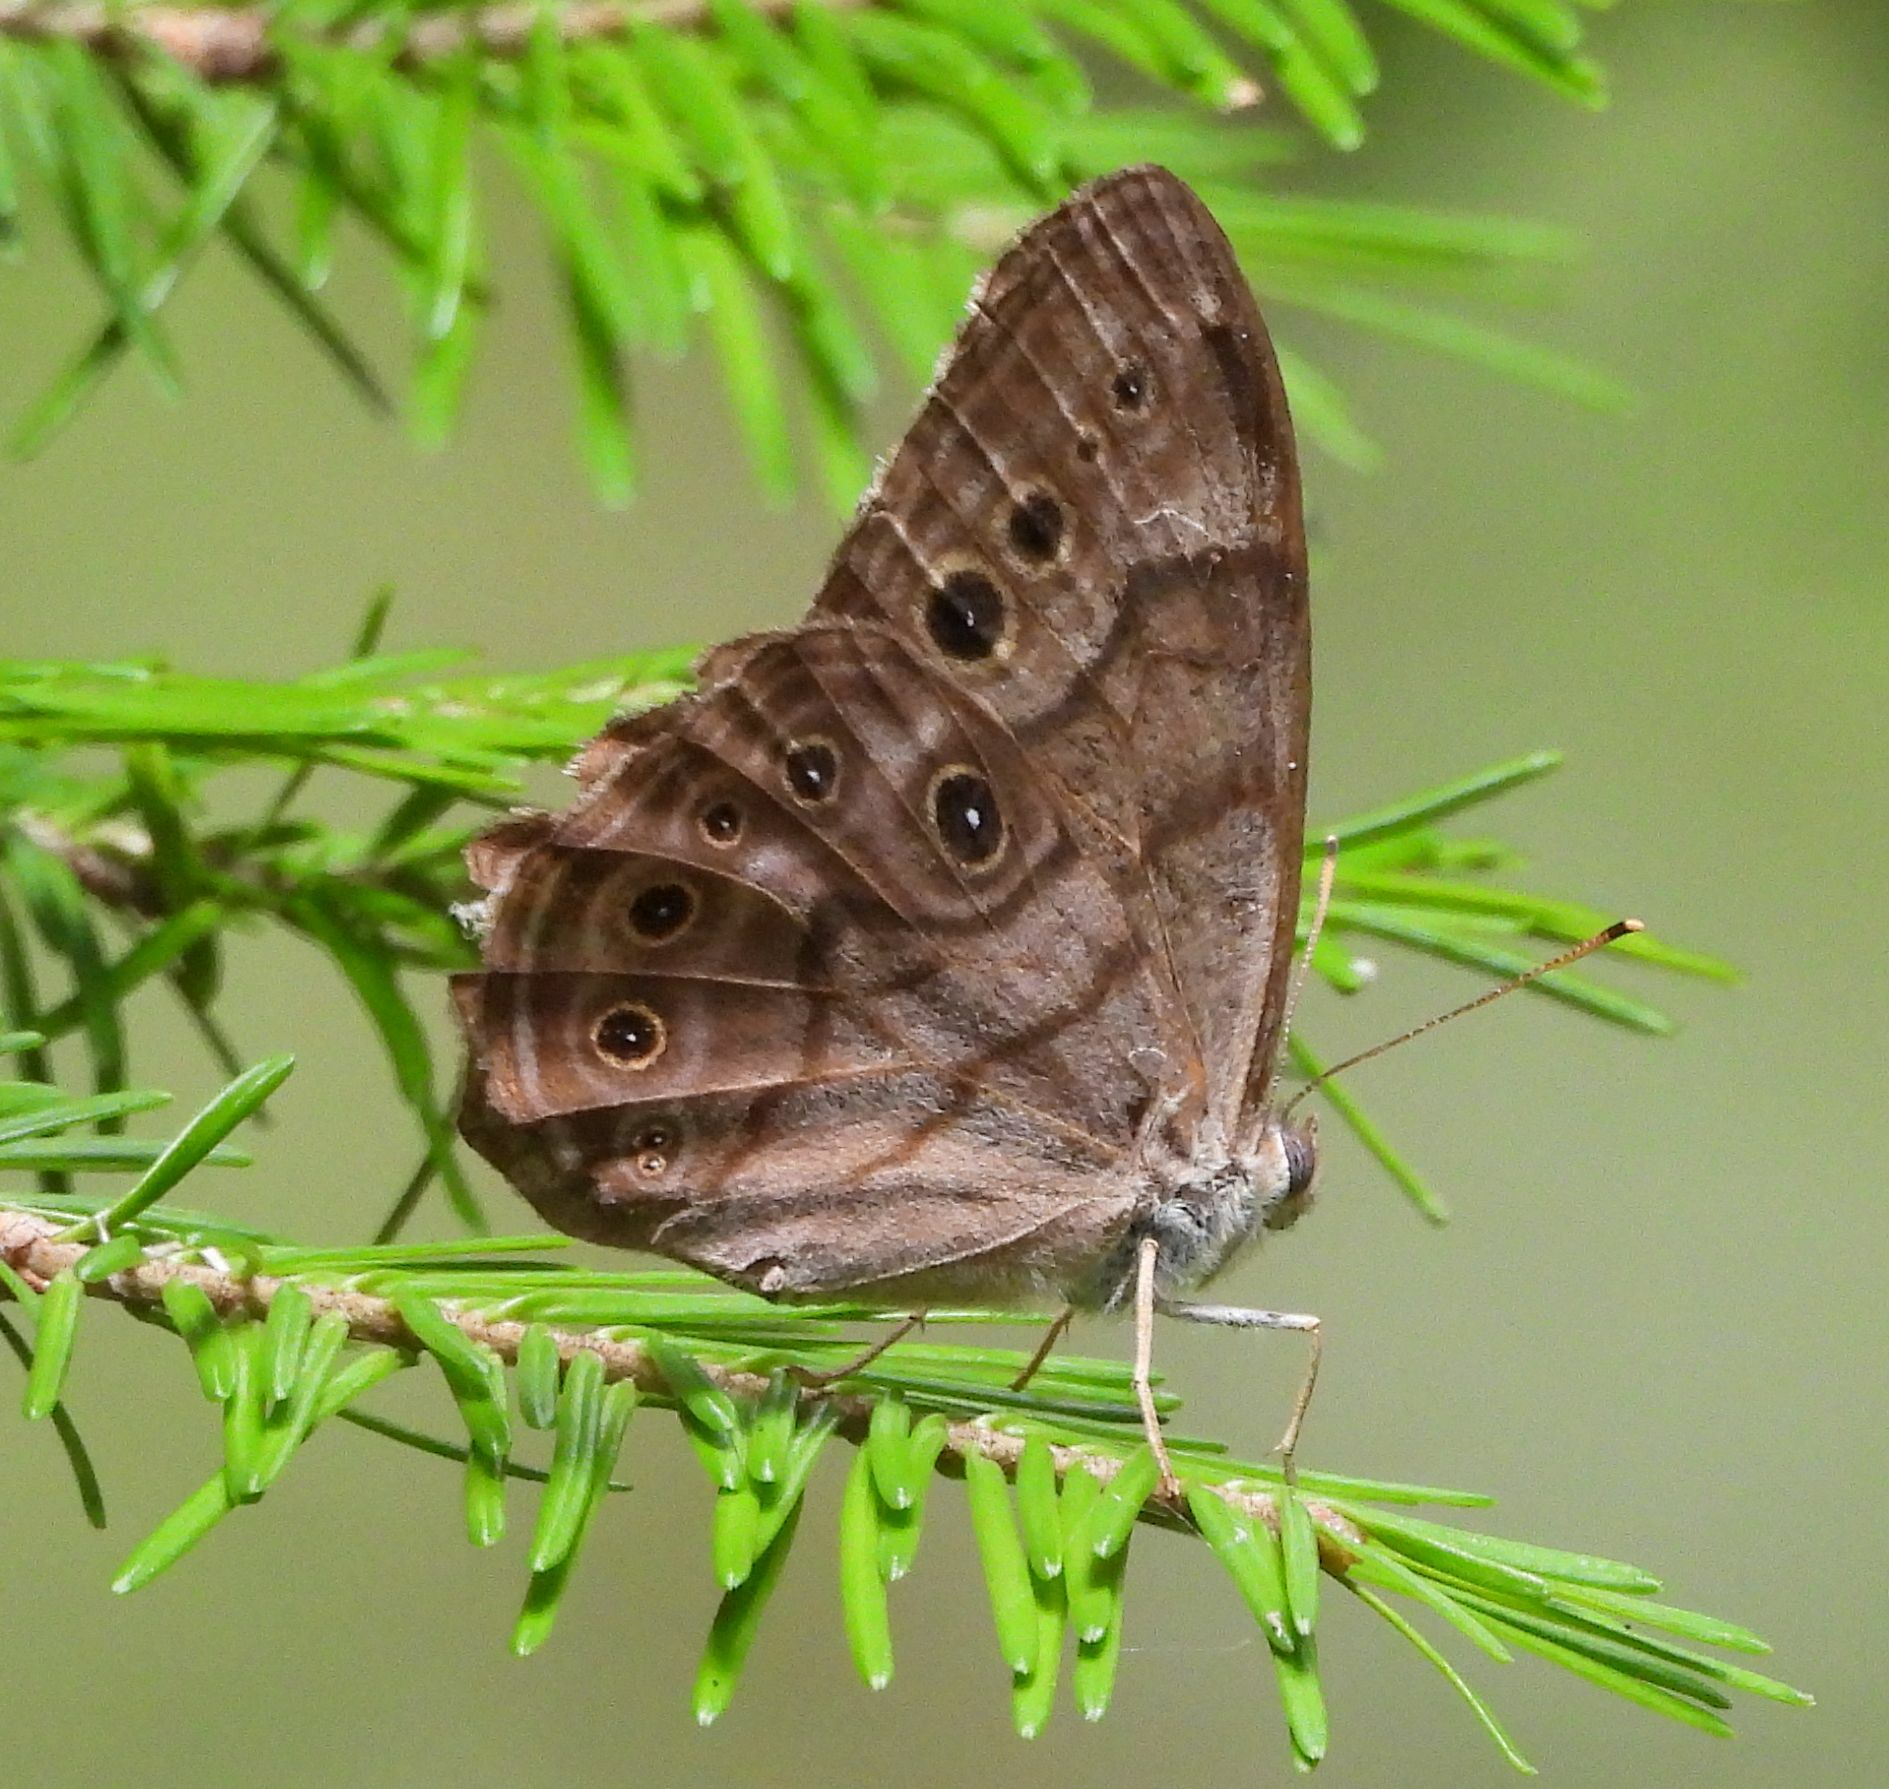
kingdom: Animalia
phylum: Arthropoda
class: Insecta
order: Lepidoptera
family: Nymphalidae
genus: Lethe
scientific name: Lethe anthedon
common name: Northern pearly-eye
